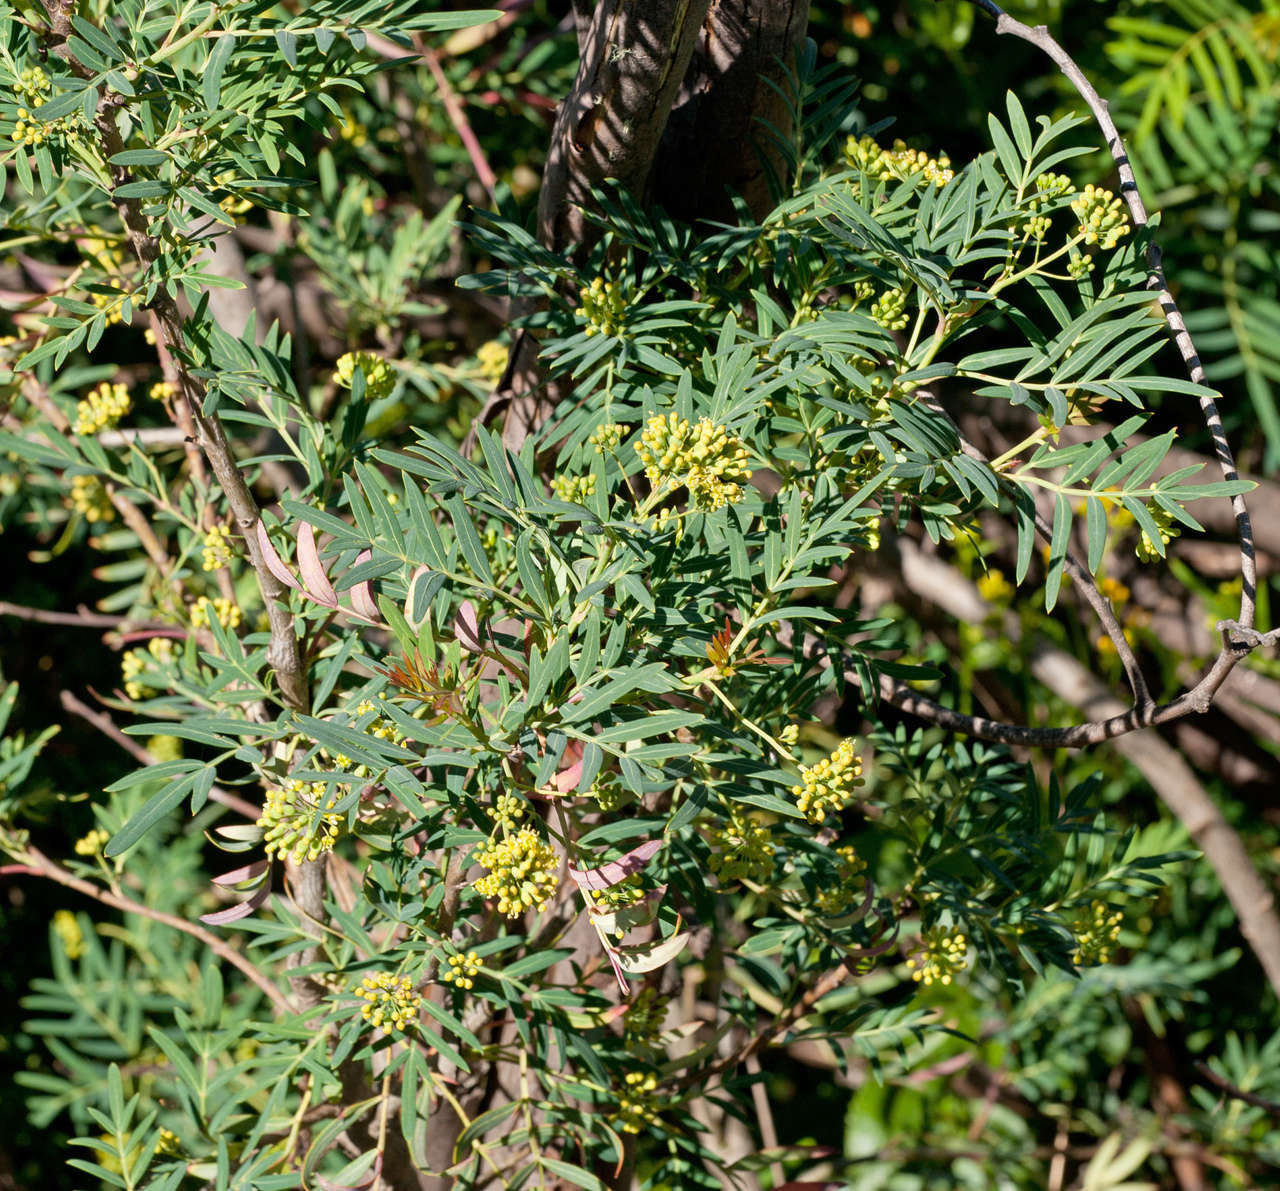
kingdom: Plantae
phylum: Tracheophyta
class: Magnoliopsida
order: Apiales
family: Araliaceae
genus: Polyscias
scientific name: Polyscias sambucifolia
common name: Elderberry-ash
